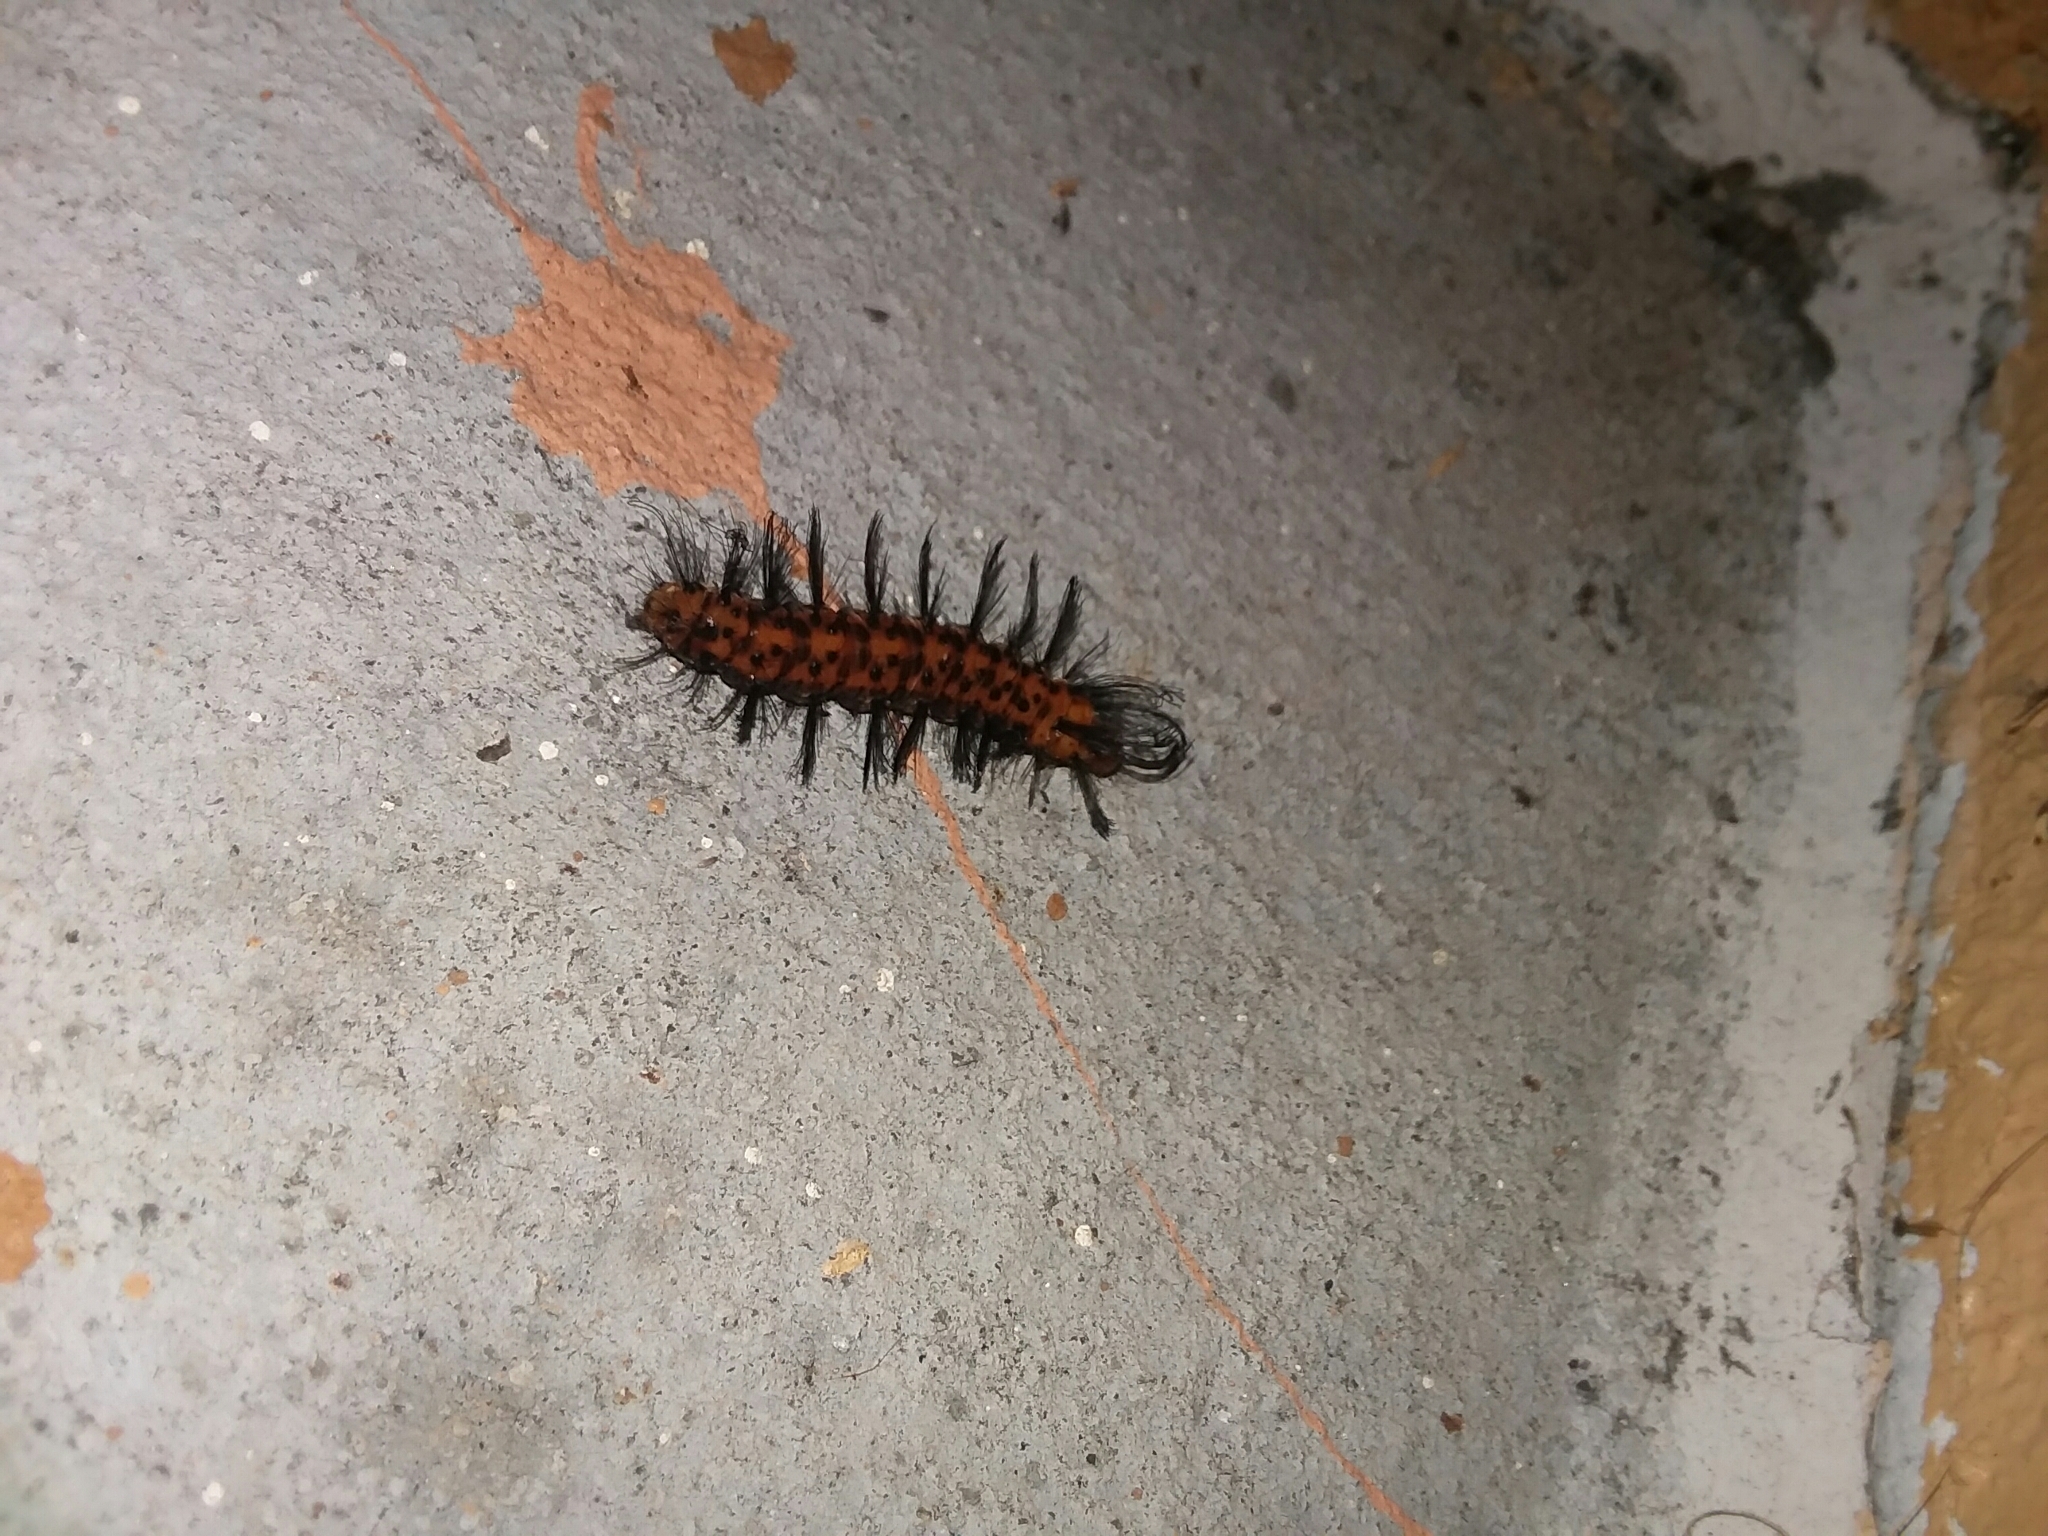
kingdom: Animalia
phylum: Arthropoda
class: Insecta
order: Lepidoptera
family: Erebidae
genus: Syntomeida
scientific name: Syntomeida epilais
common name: Polka-dot wasp moth
